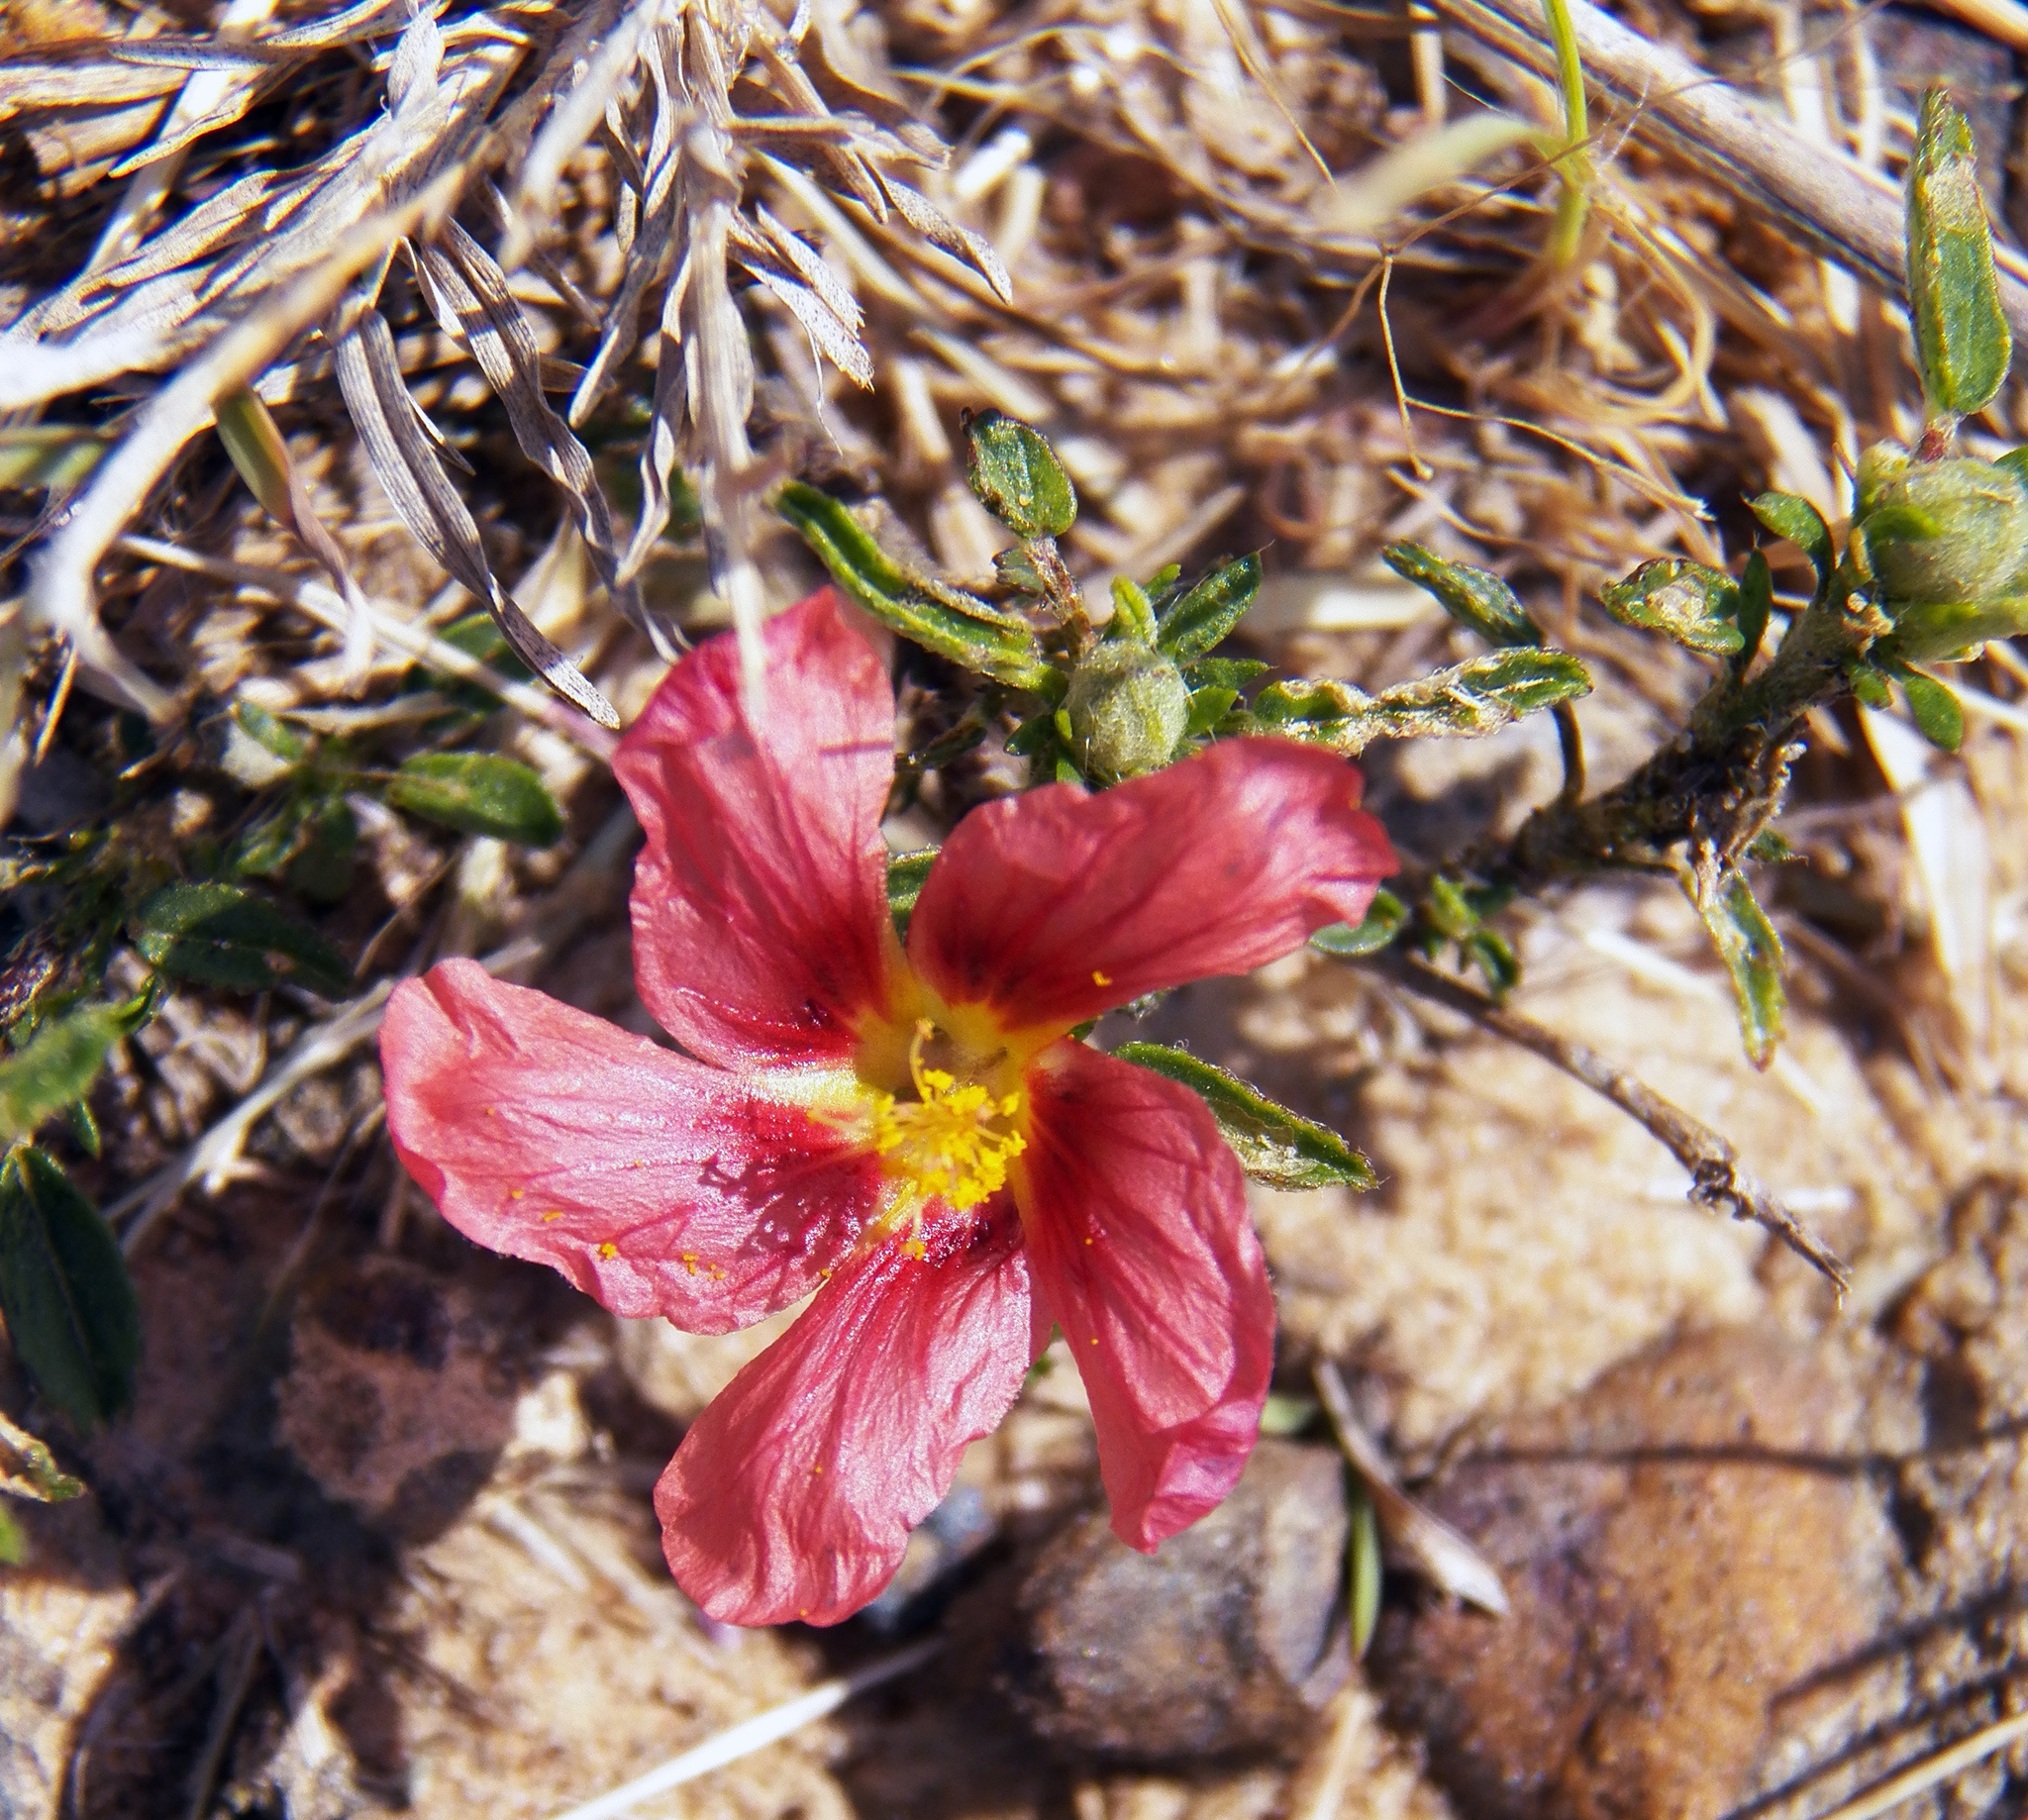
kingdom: Plantae
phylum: Tracheophyta
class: Magnoliopsida
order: Malvales
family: Malvaceae
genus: Sida
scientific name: Sida ciliaris
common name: Bracted fanpetals
